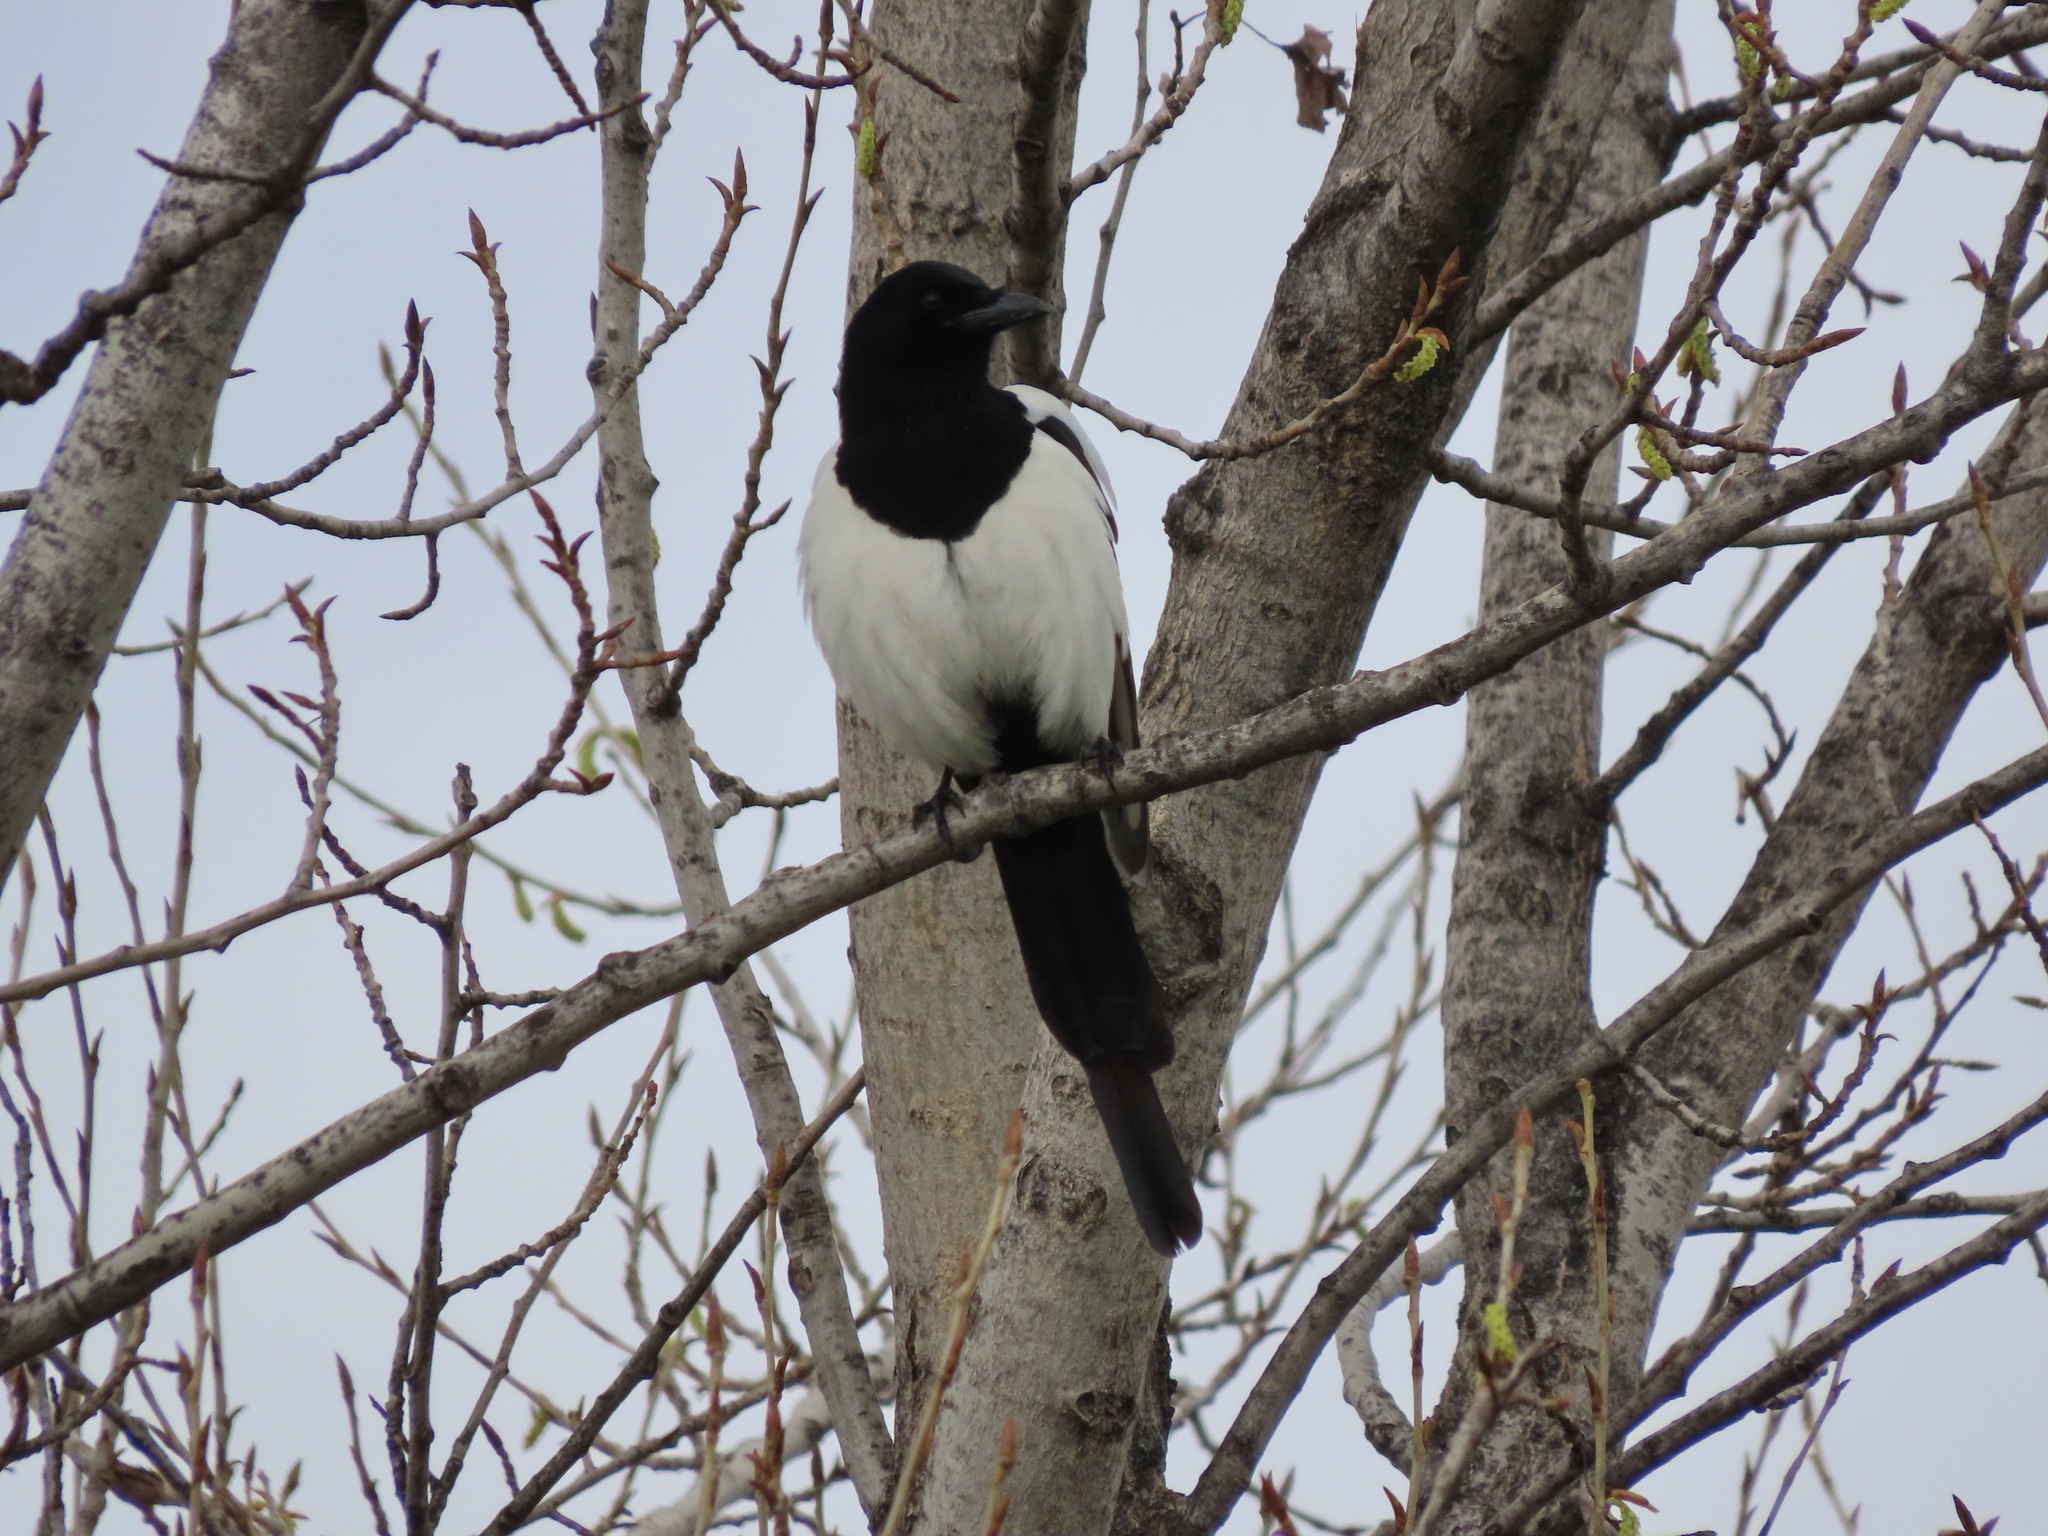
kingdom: Animalia
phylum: Chordata
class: Aves
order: Passeriformes
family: Corvidae
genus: Pica
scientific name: Pica pica
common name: Eurasian magpie
